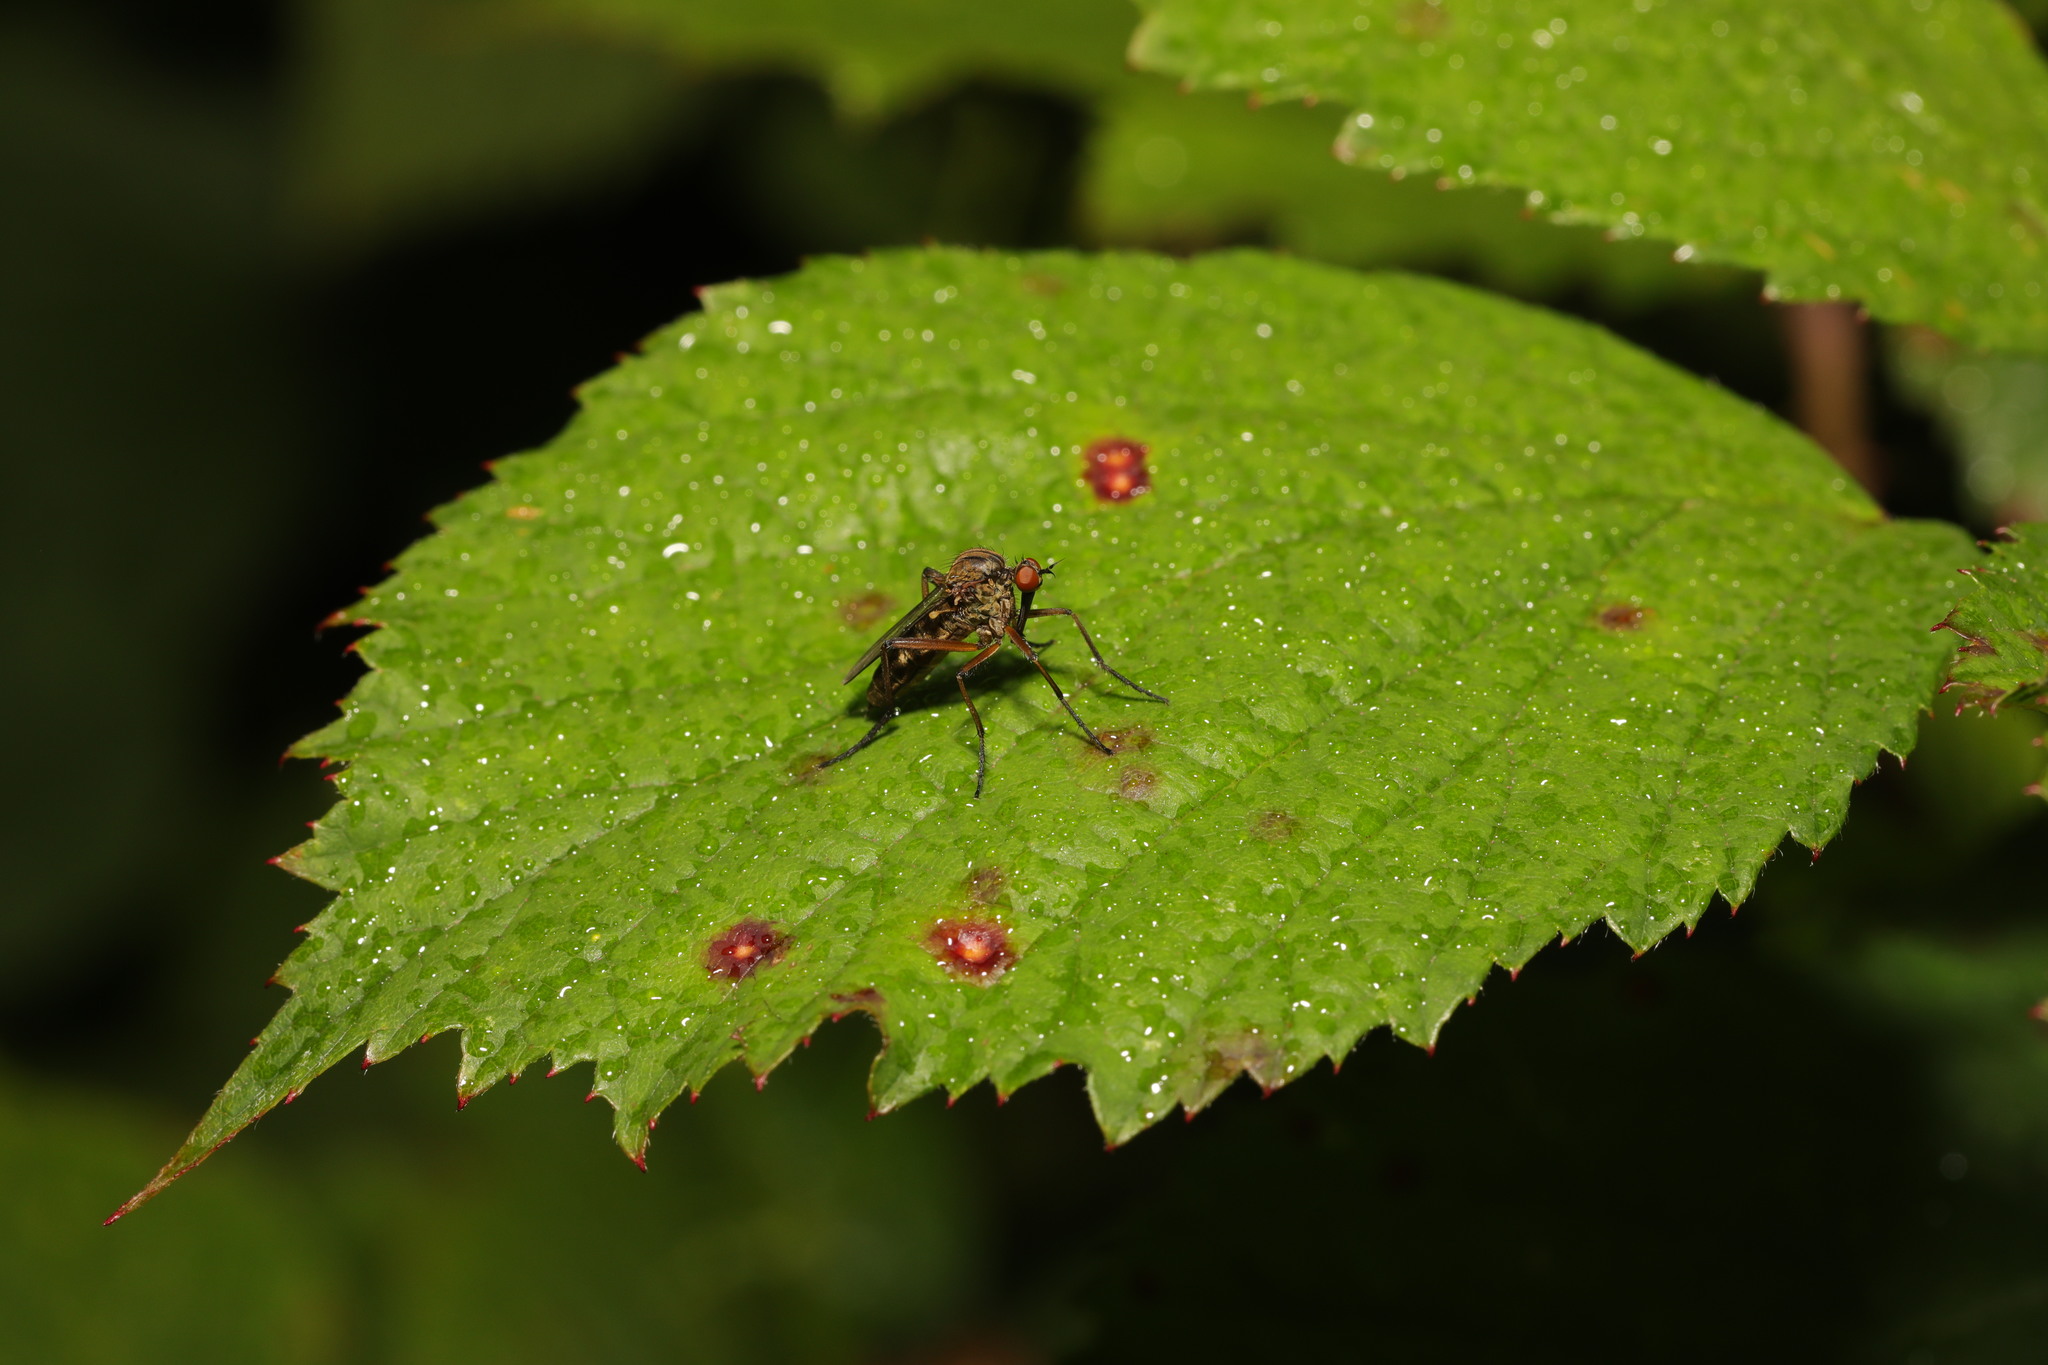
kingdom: Animalia
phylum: Arthropoda
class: Insecta
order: Diptera
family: Empididae
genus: Empis
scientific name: Empis livida
